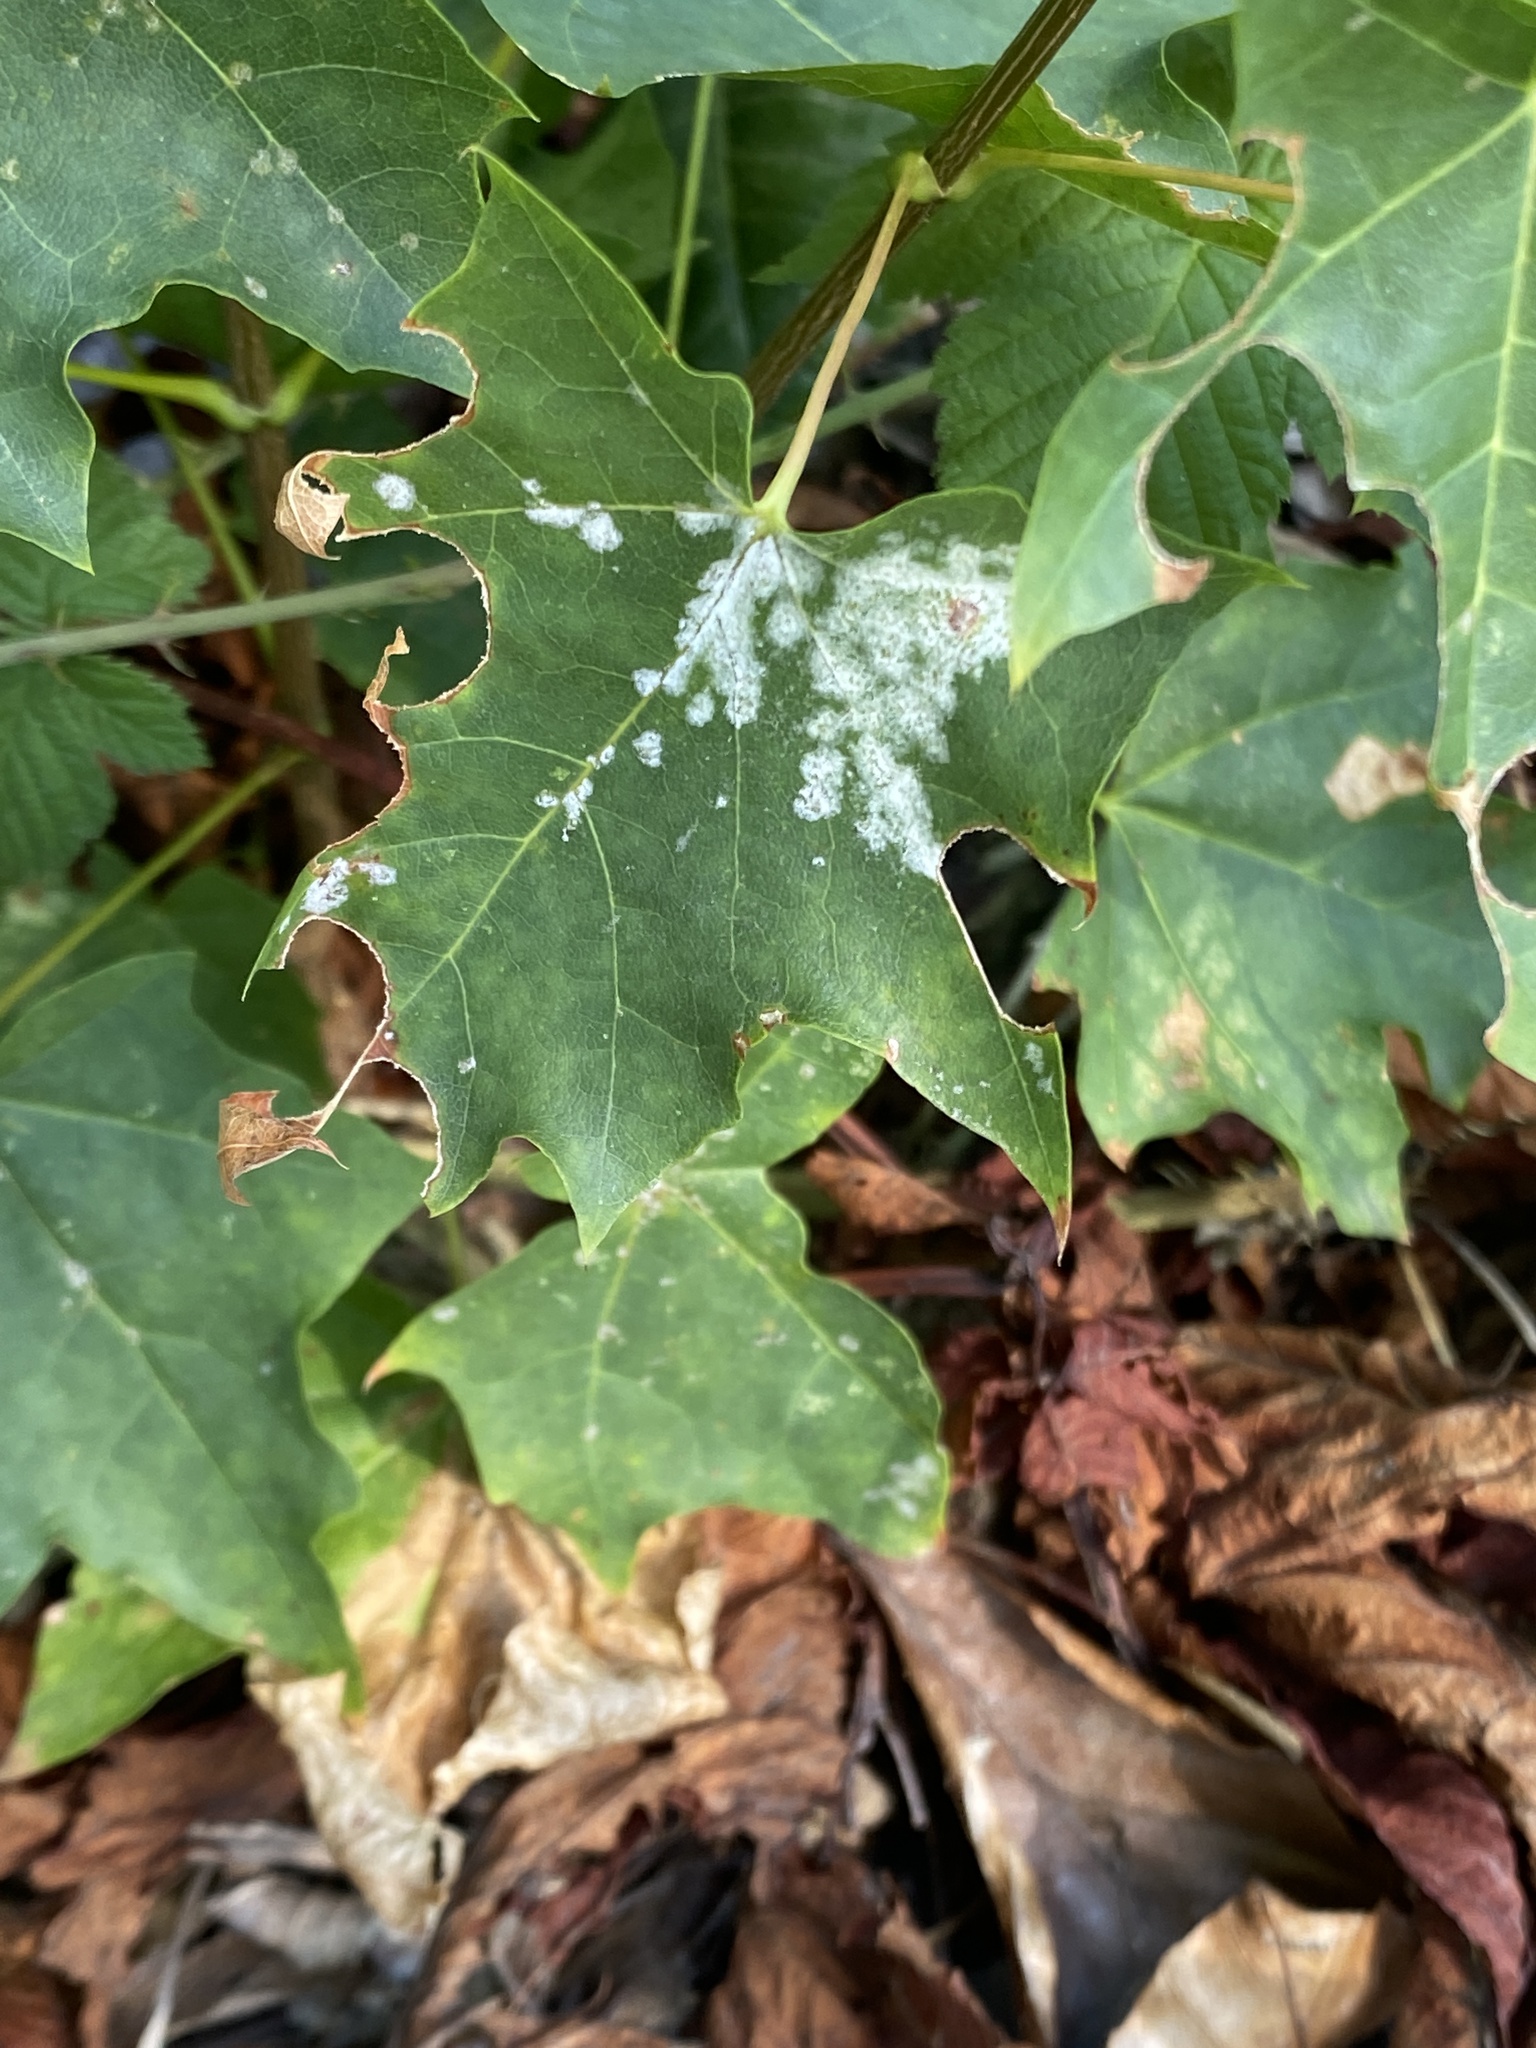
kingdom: Fungi
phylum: Ascomycota
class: Leotiomycetes
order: Helotiales
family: Erysiphaceae
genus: Sawadaea
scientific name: Sawadaea tulasnei
